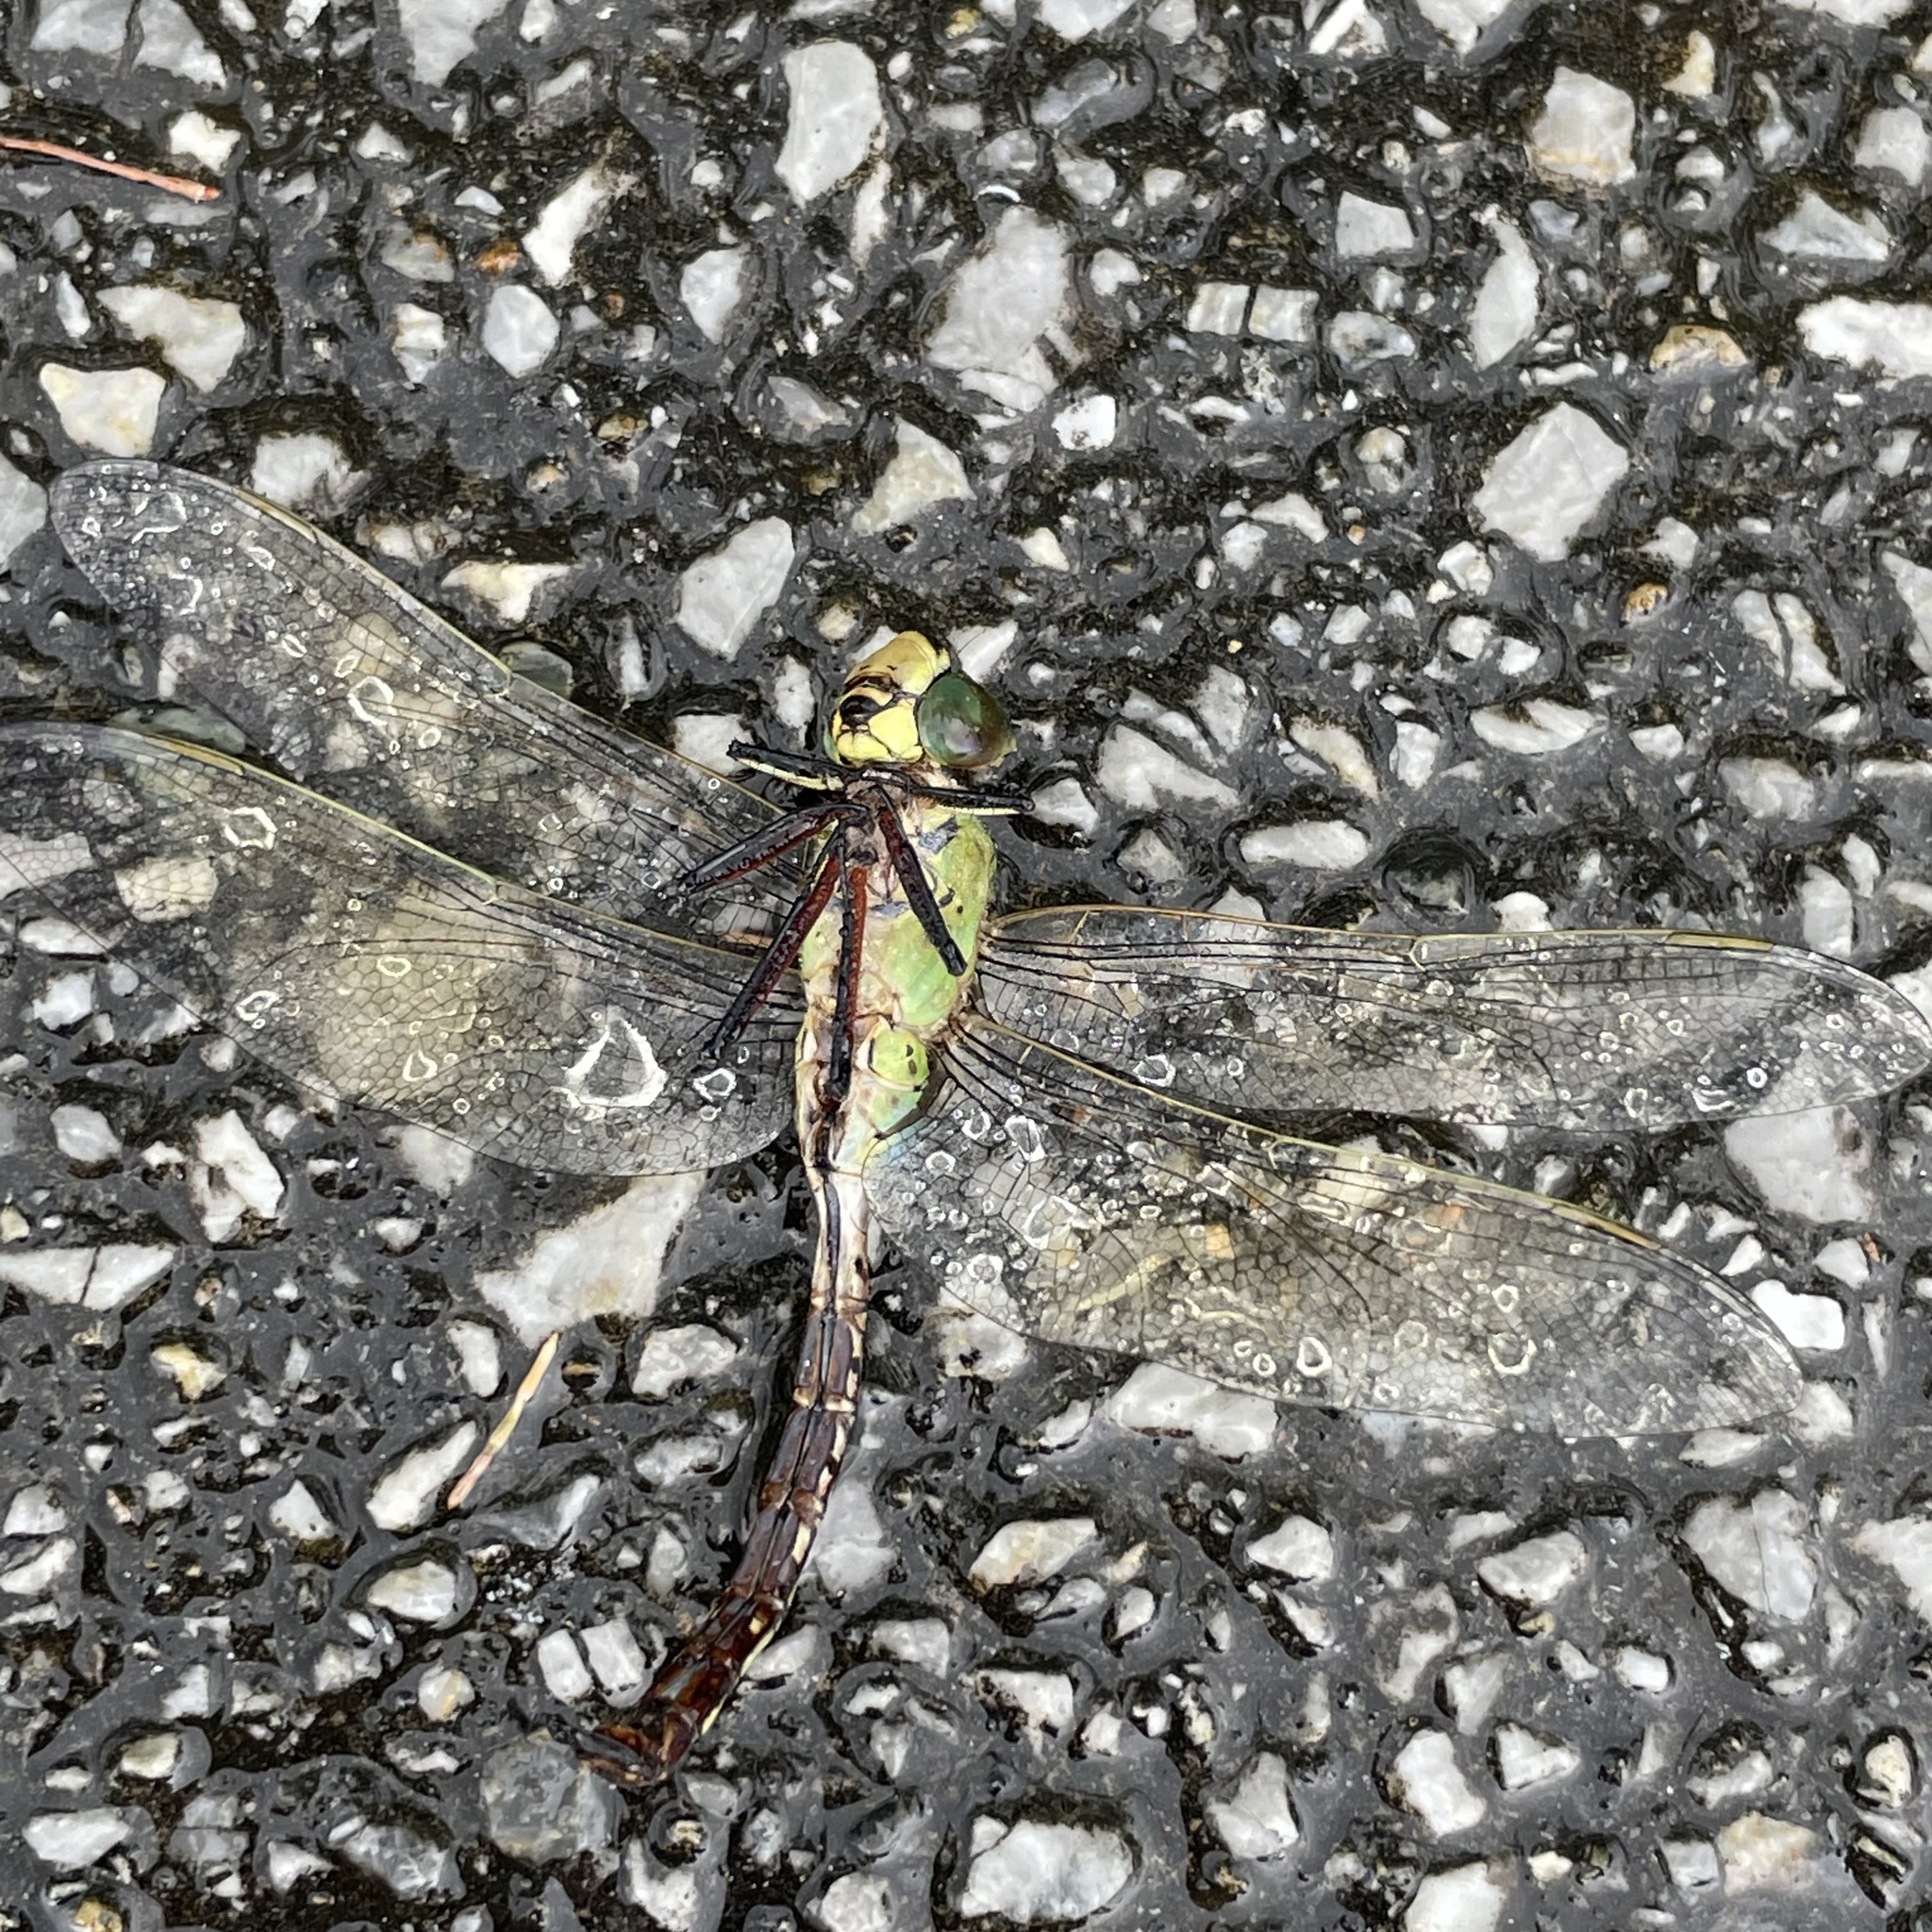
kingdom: Animalia
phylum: Arthropoda
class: Insecta
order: Odonata
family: Aeshnidae
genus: Anax
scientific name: Anax julius
